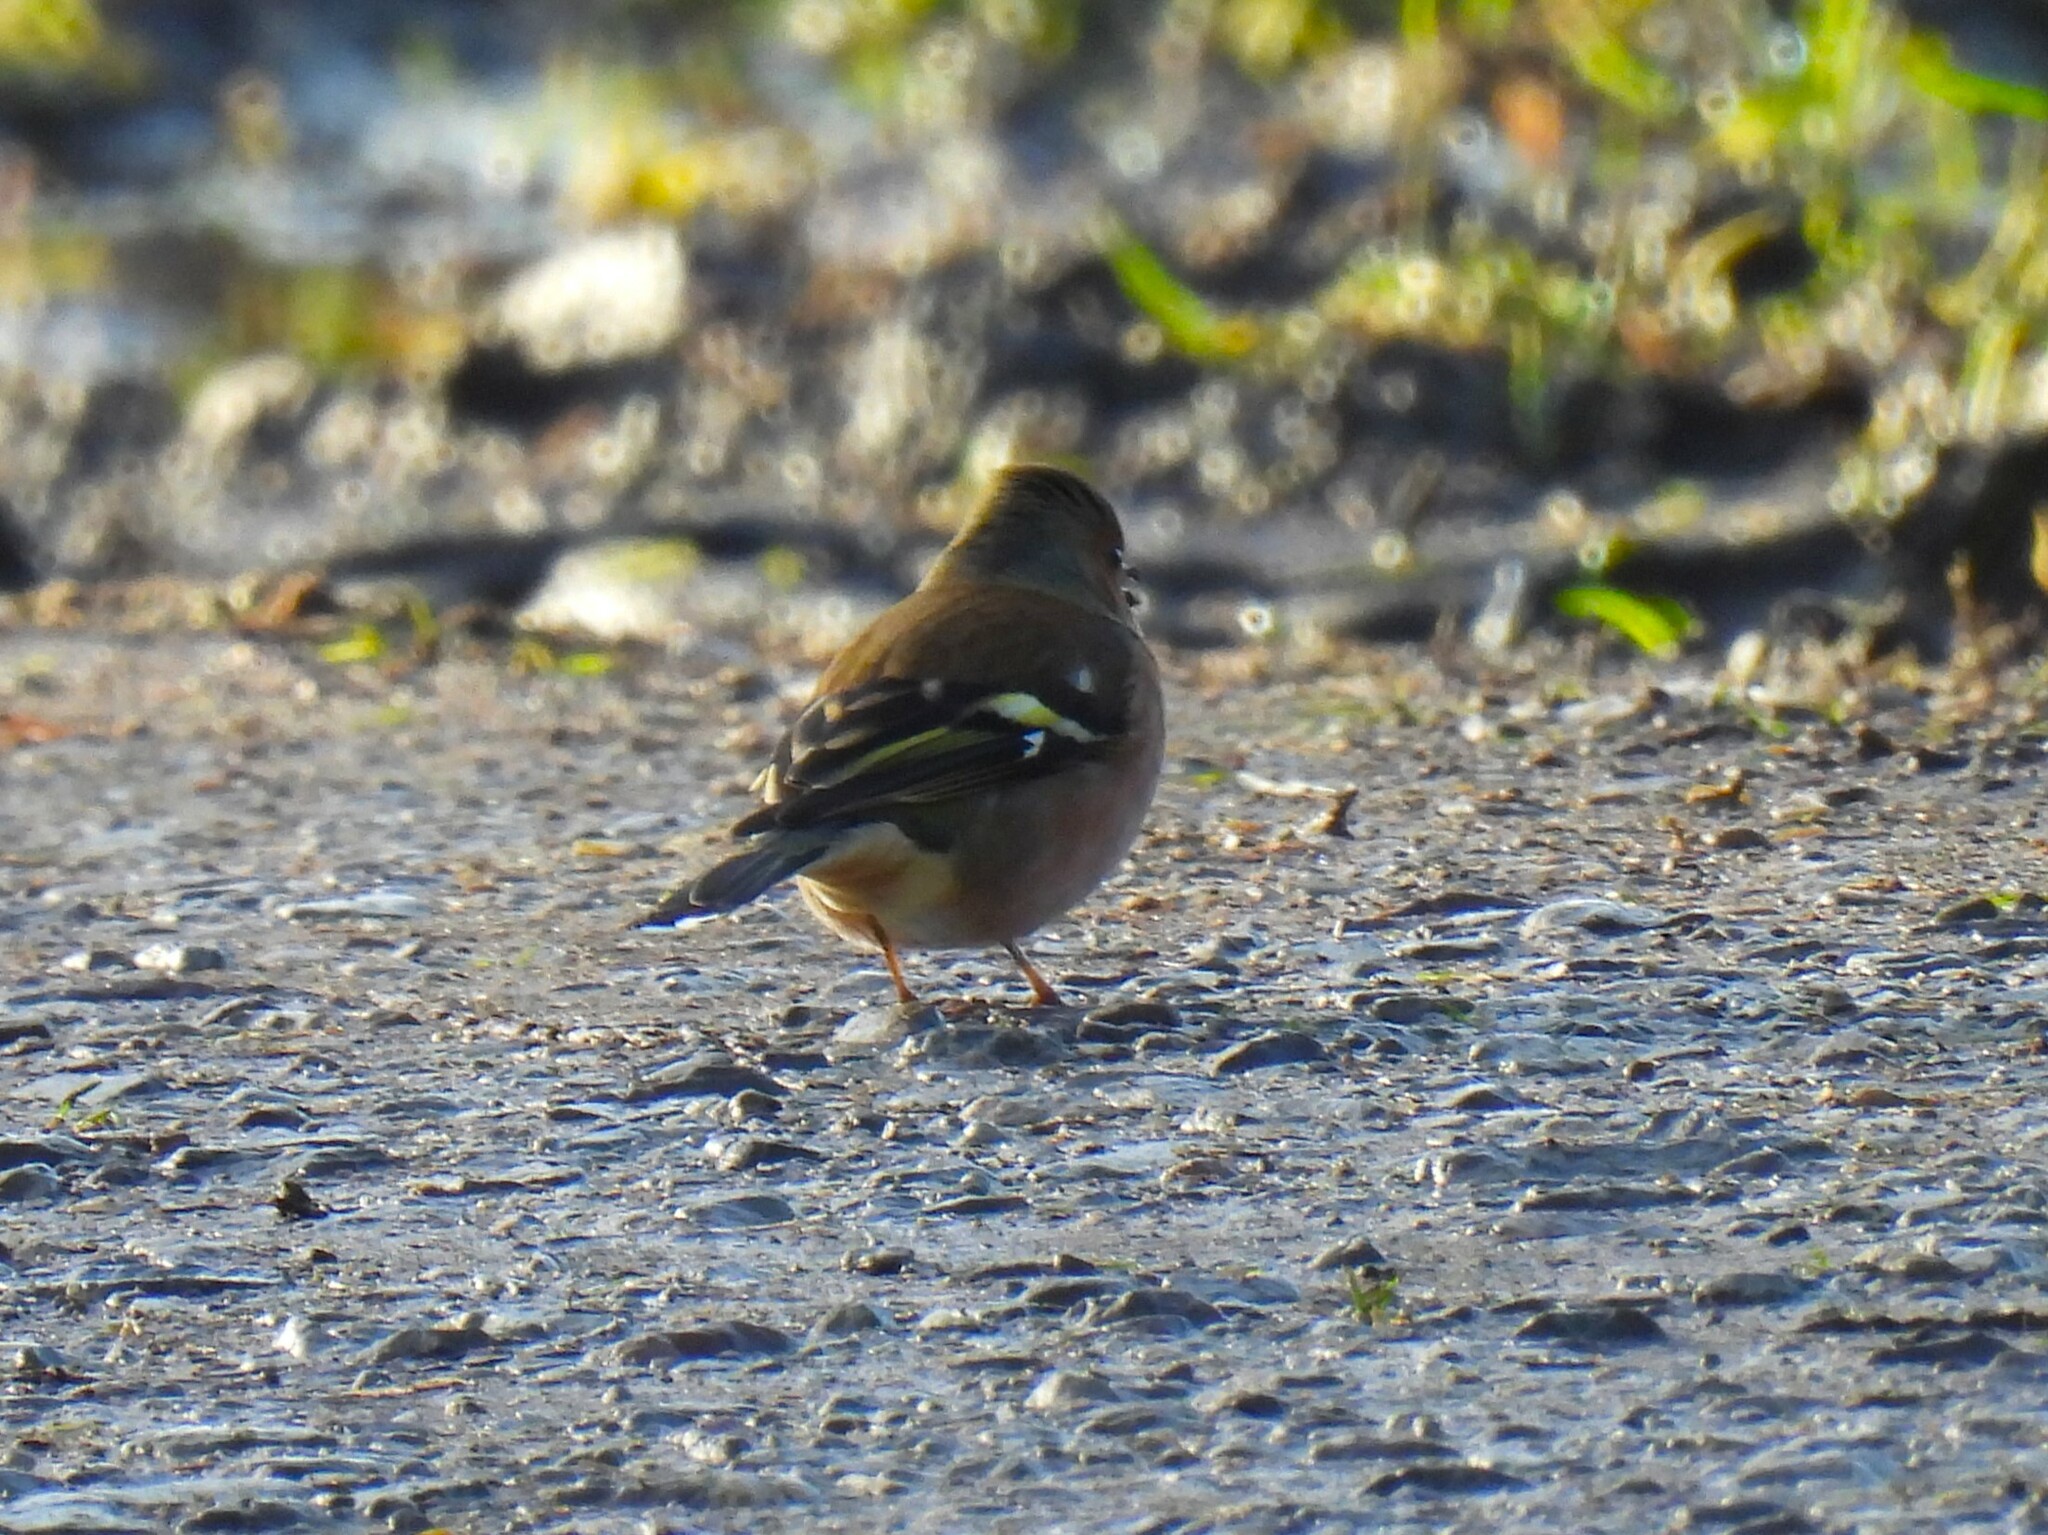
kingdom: Animalia
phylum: Chordata
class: Aves
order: Passeriformes
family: Fringillidae
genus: Fringilla
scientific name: Fringilla coelebs
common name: Common chaffinch
